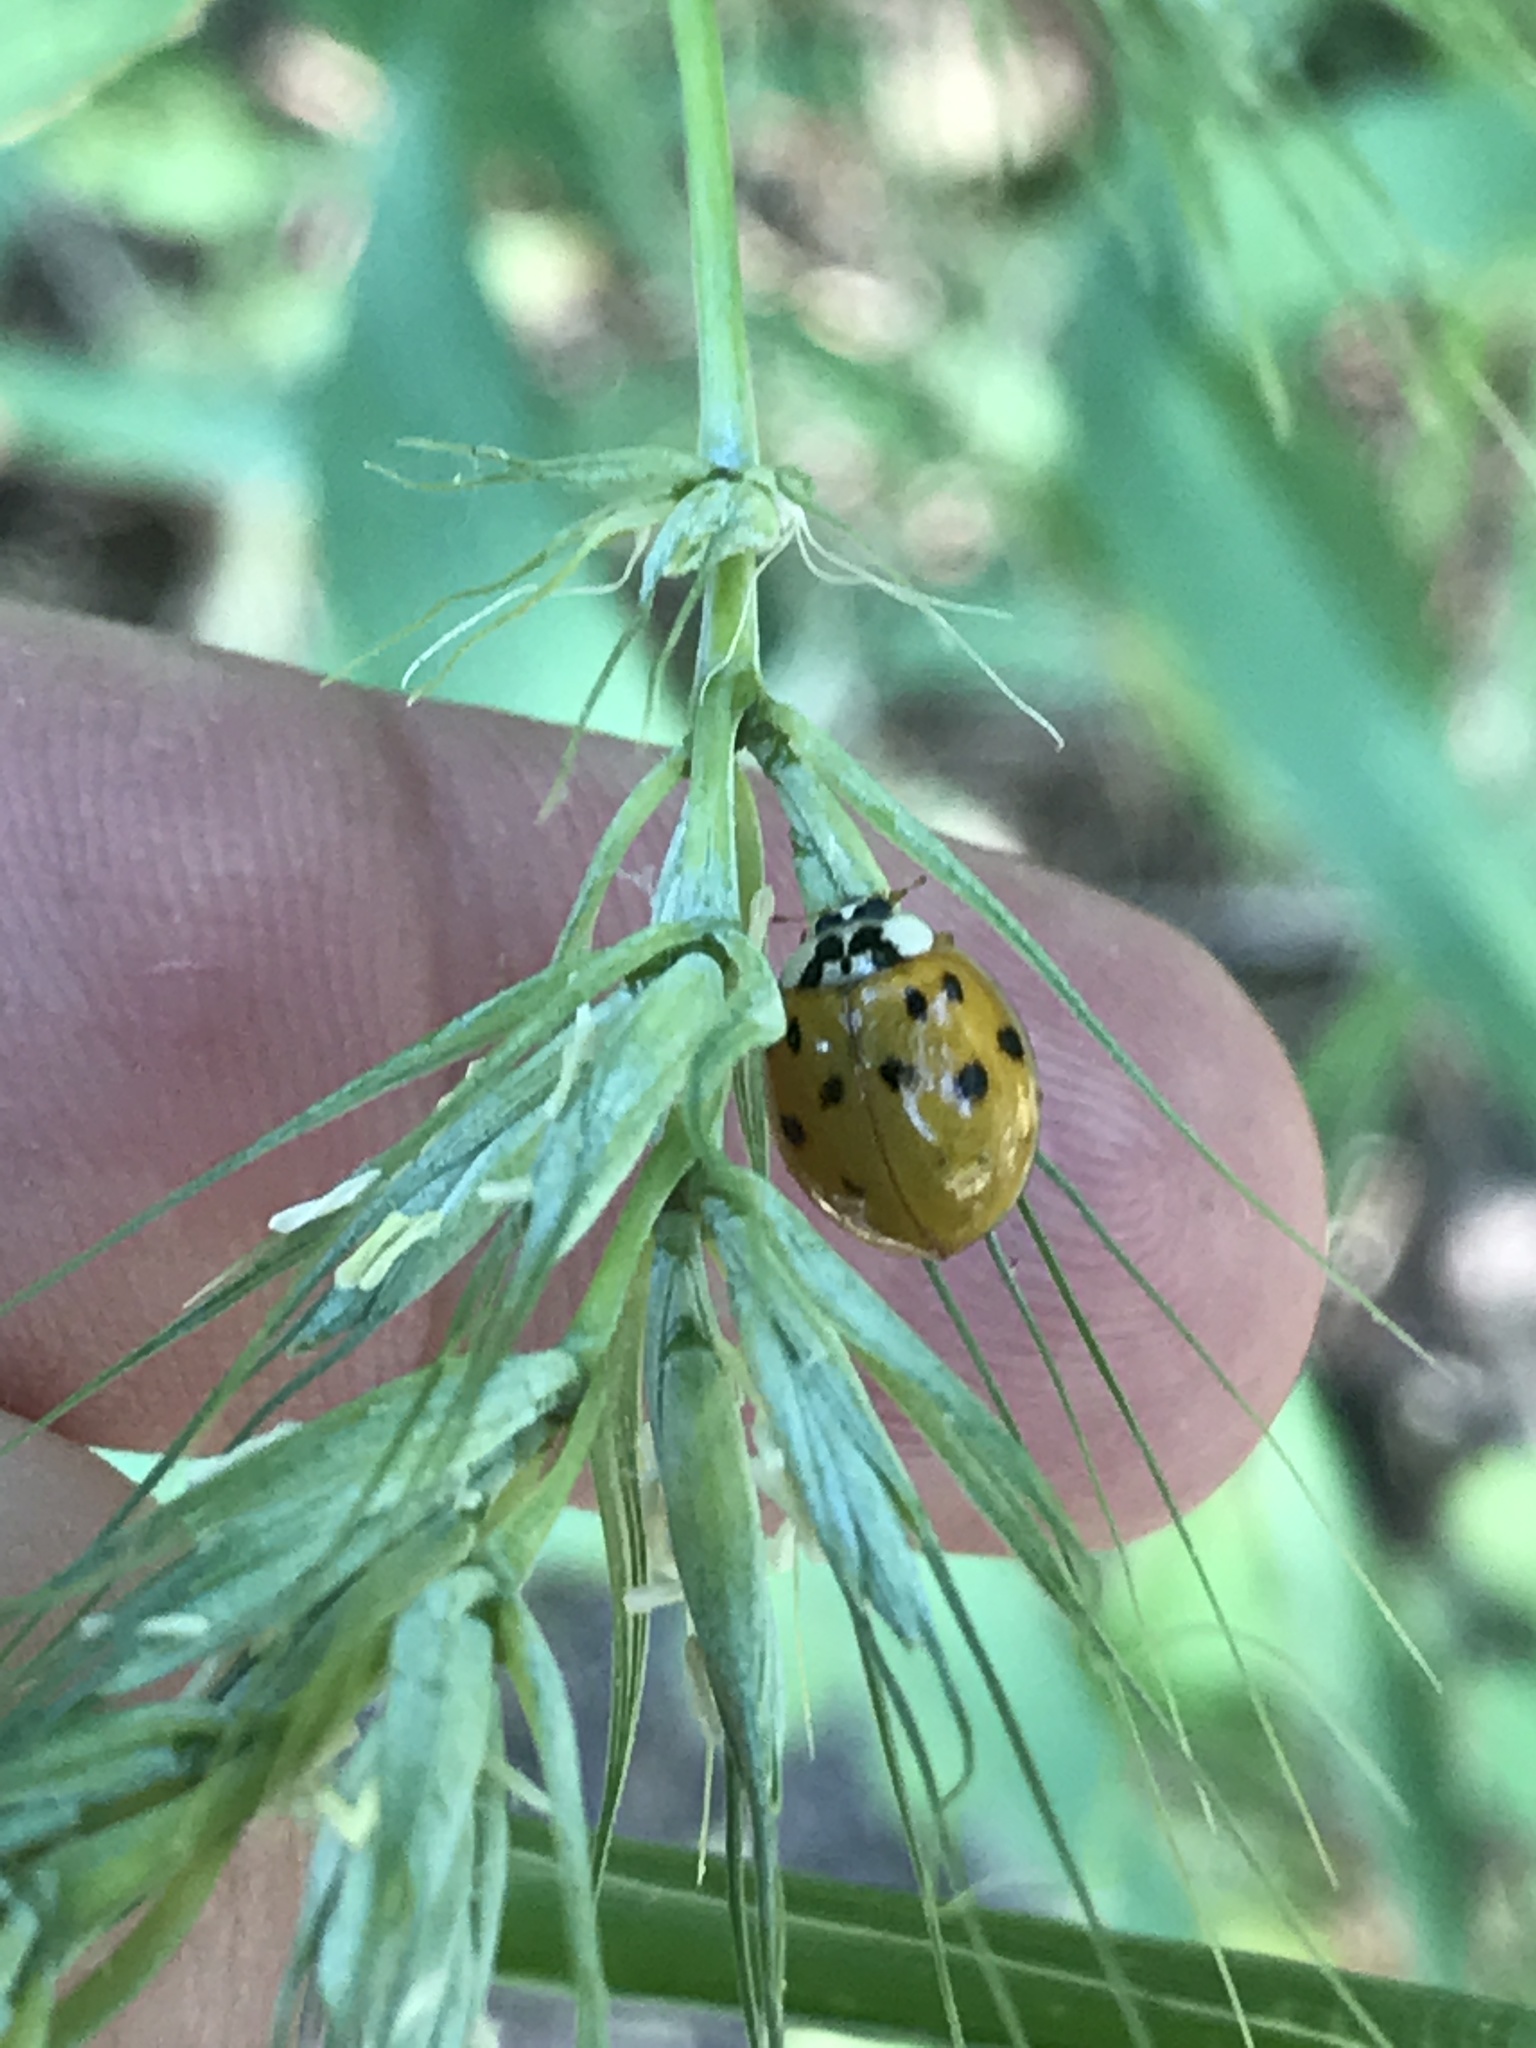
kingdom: Animalia
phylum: Arthropoda
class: Insecta
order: Coleoptera
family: Coccinellidae
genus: Harmonia
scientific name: Harmonia axyridis
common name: Harlequin ladybird
